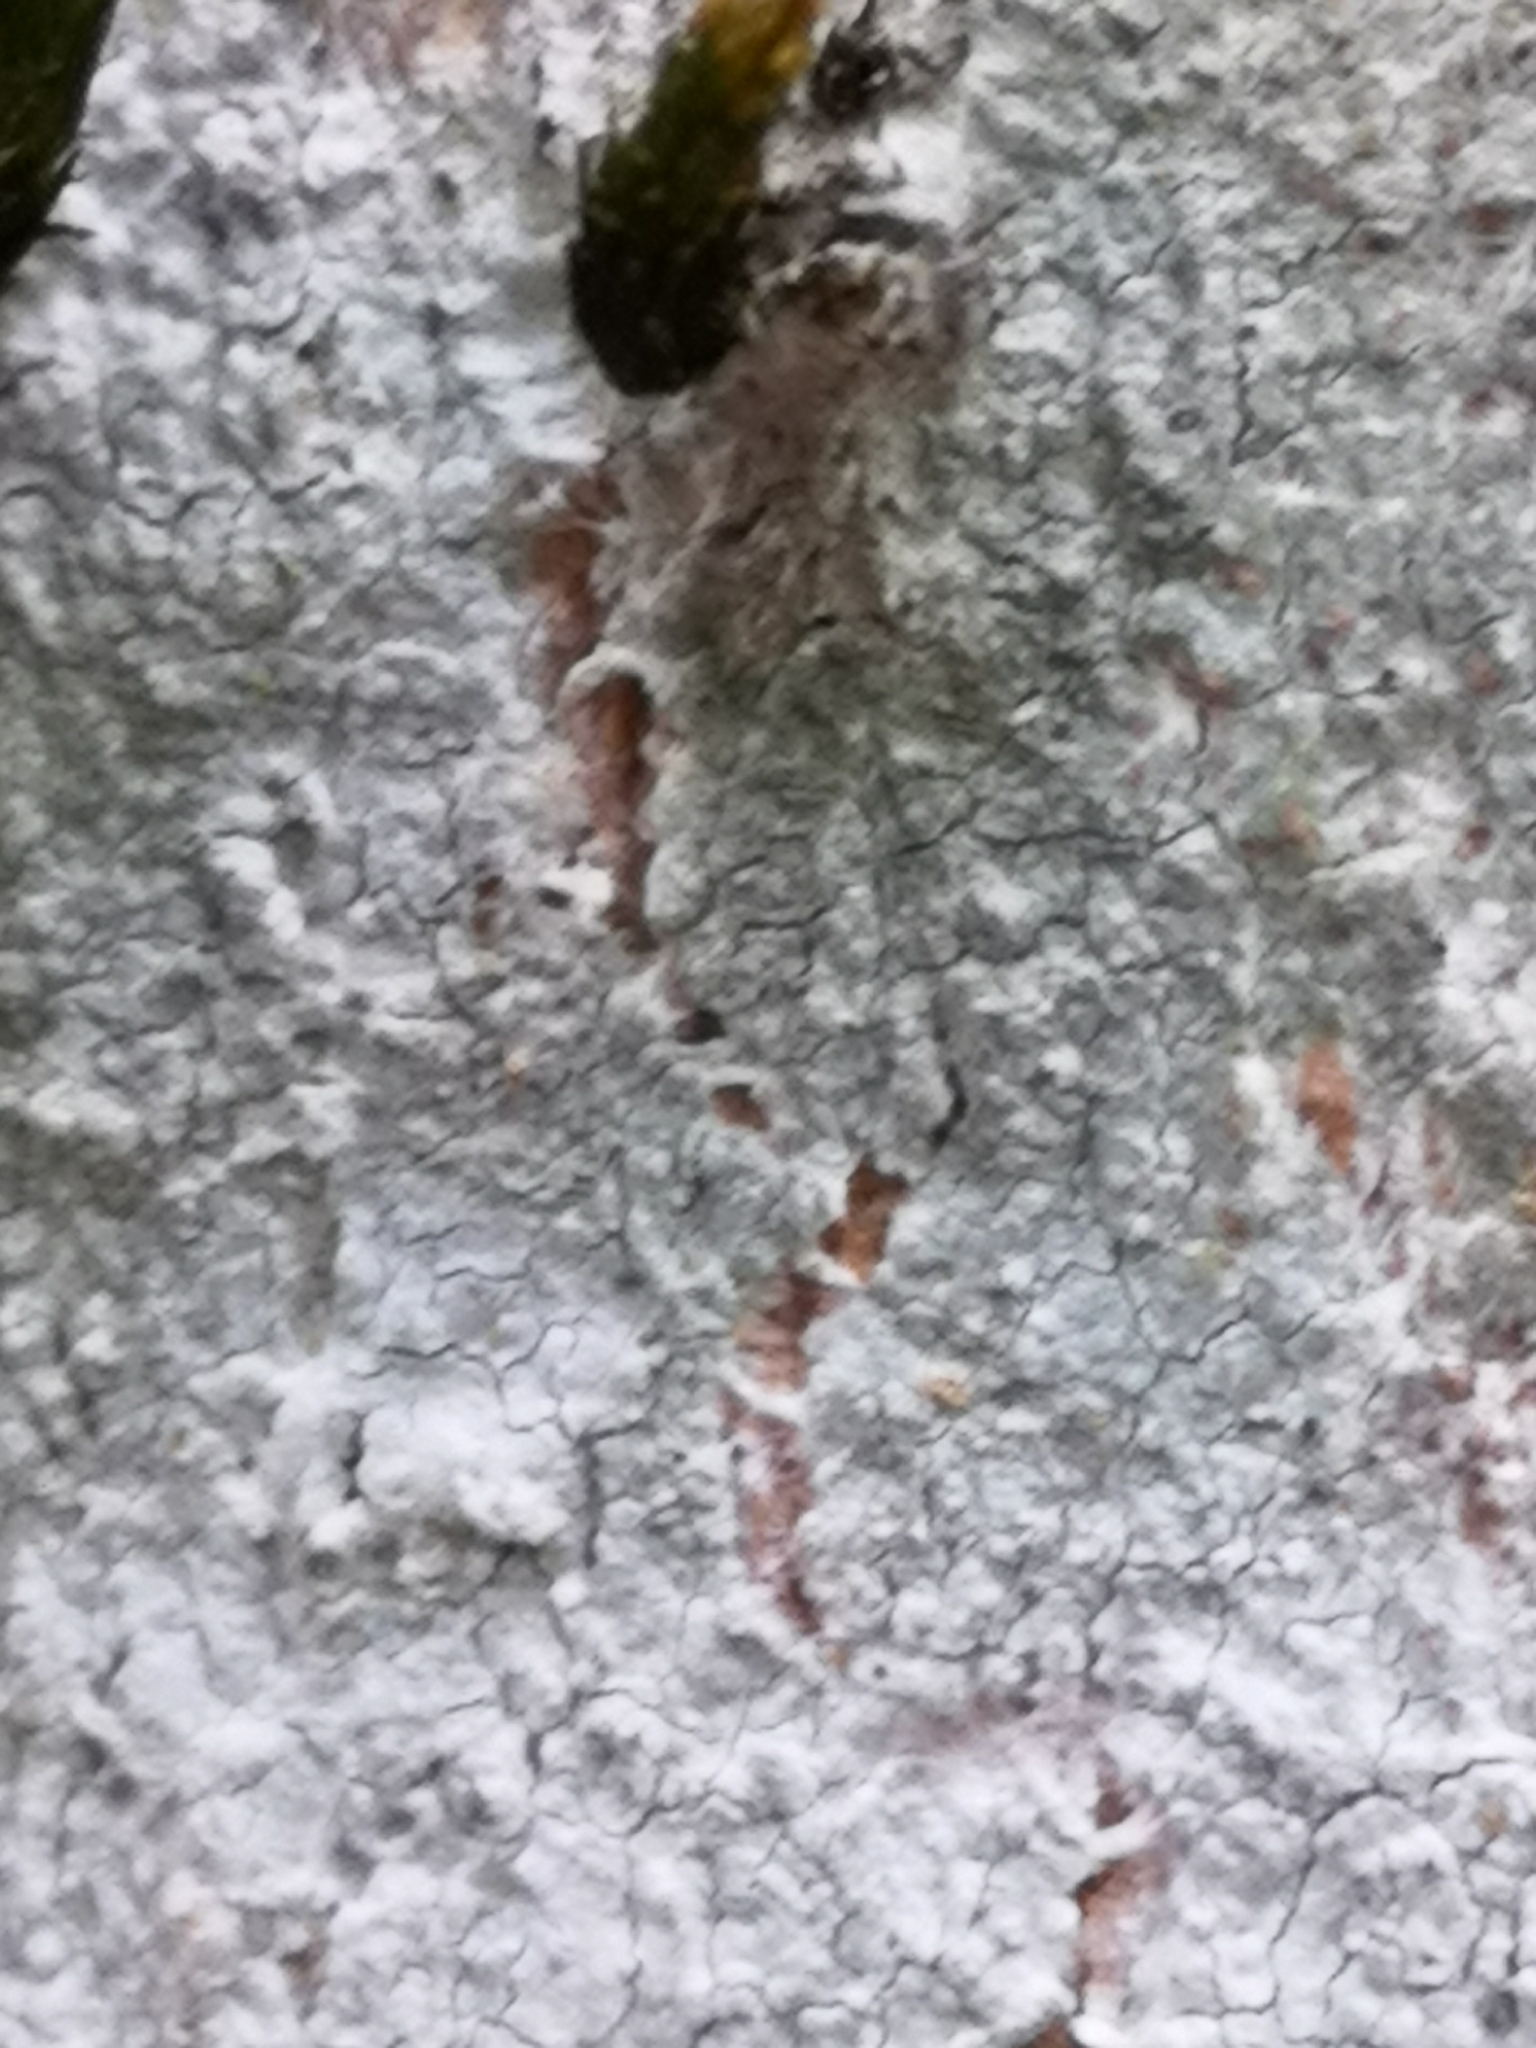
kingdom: Fungi
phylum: Ascomycota
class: Lecanoromycetes
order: Ostropales
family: Phlyctidaceae
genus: Phlyctis
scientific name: Phlyctis argena
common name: Whitewash lichen
